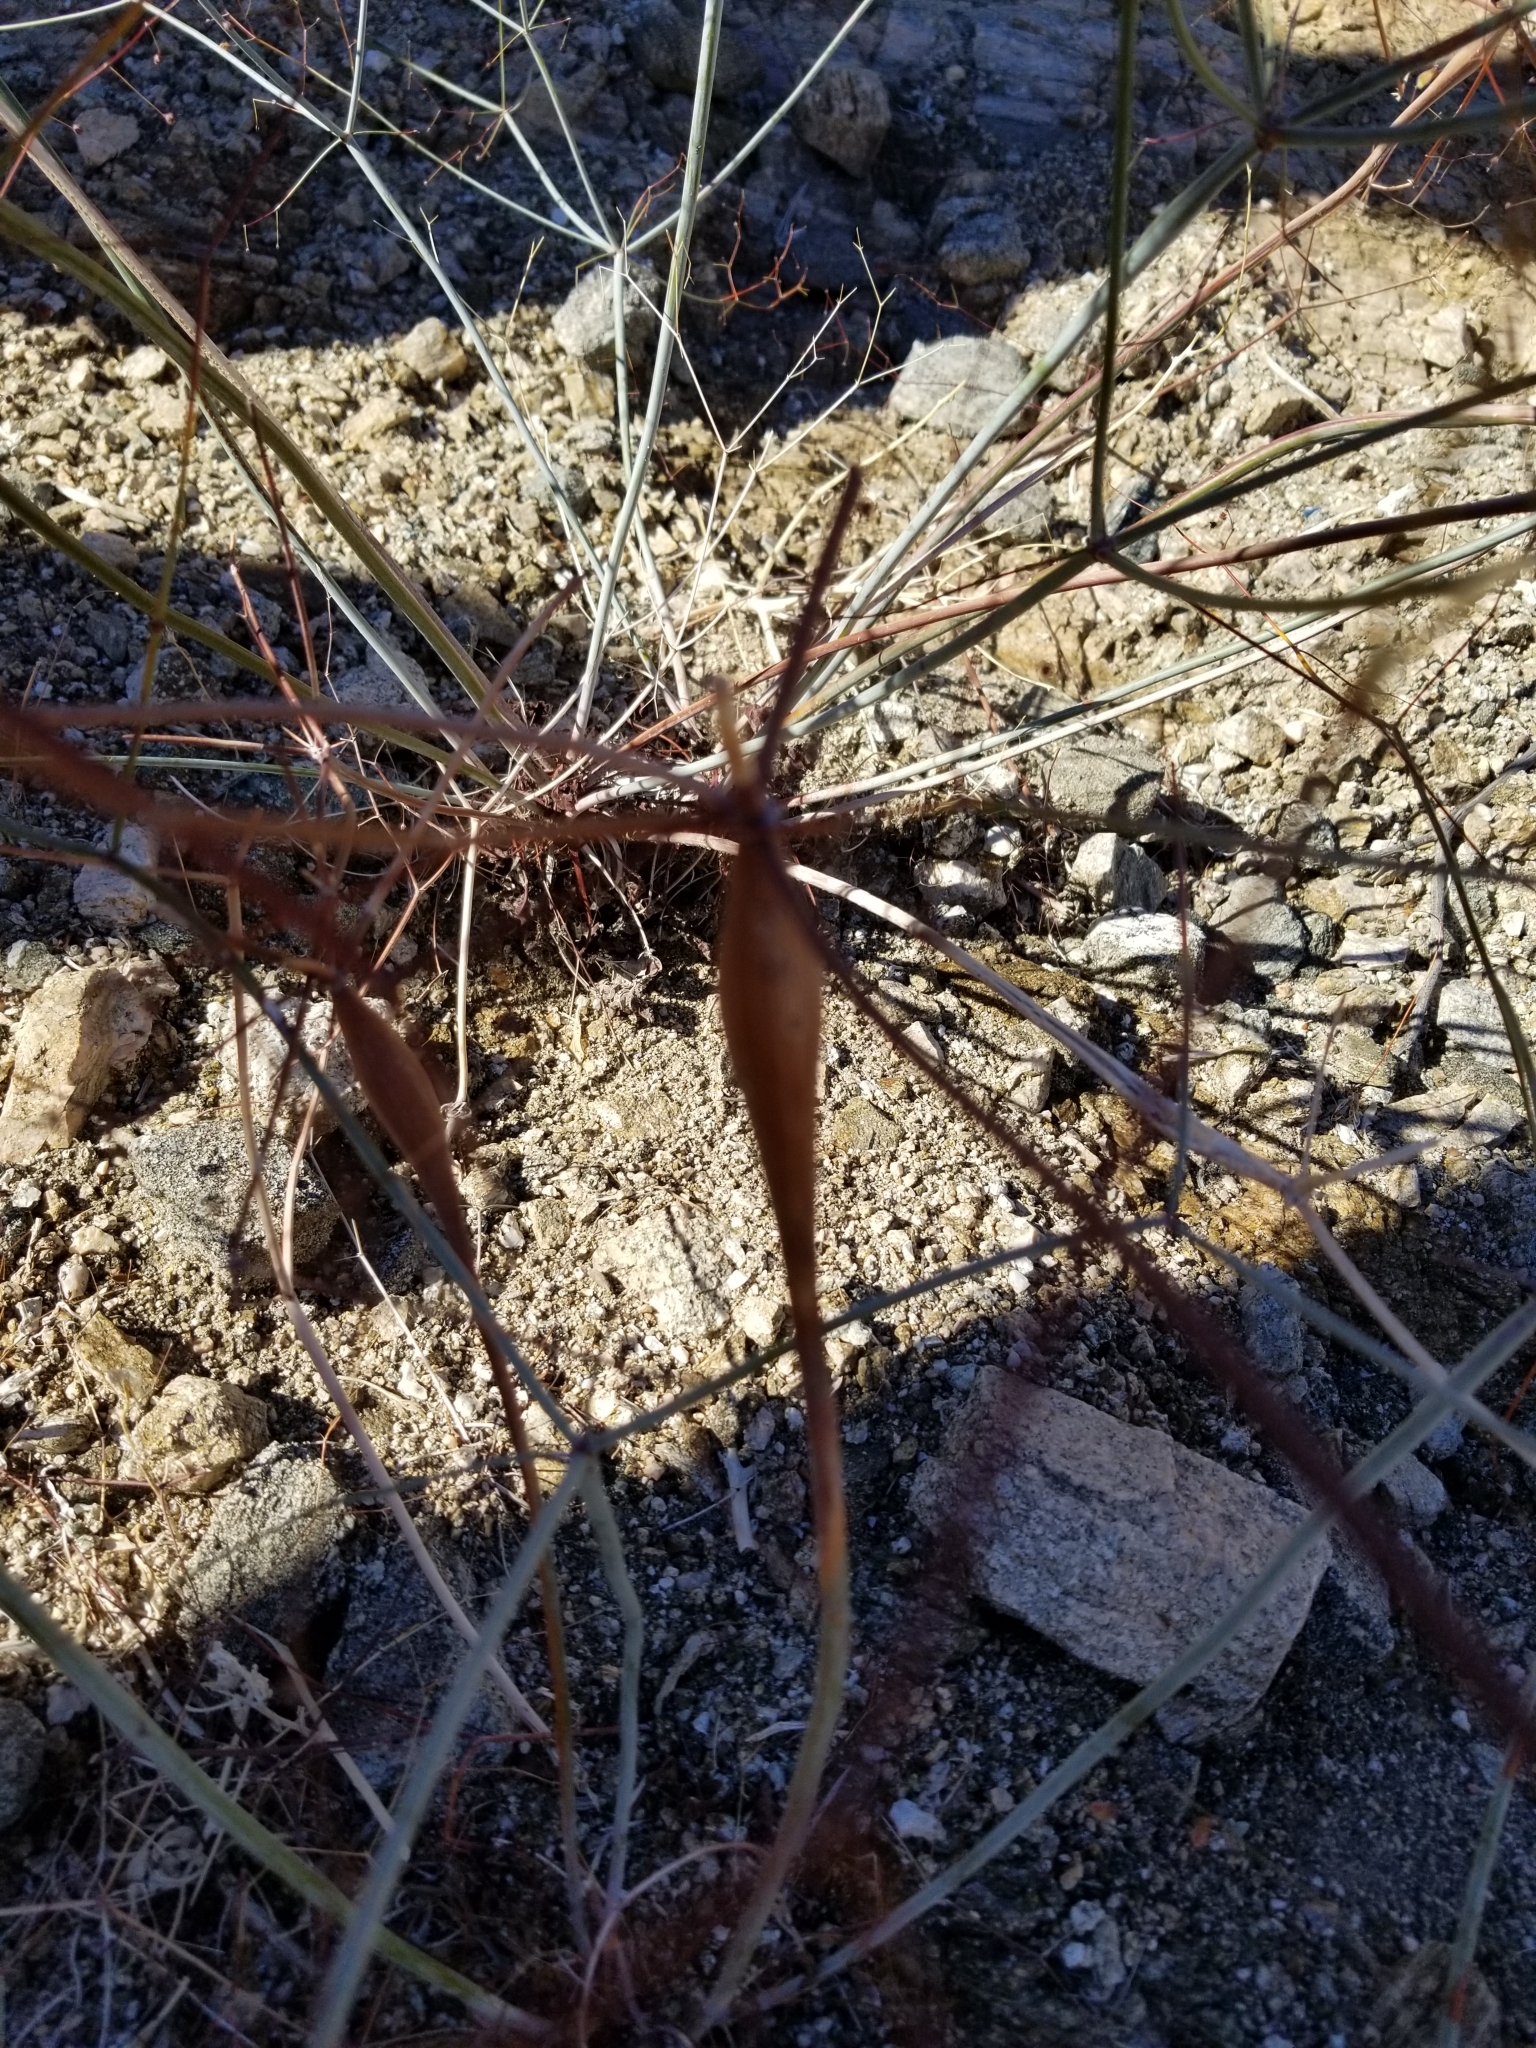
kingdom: Plantae
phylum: Tracheophyta
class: Magnoliopsida
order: Caryophyllales
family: Polygonaceae
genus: Eriogonum
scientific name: Eriogonum inflatum
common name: Desert trumpet
